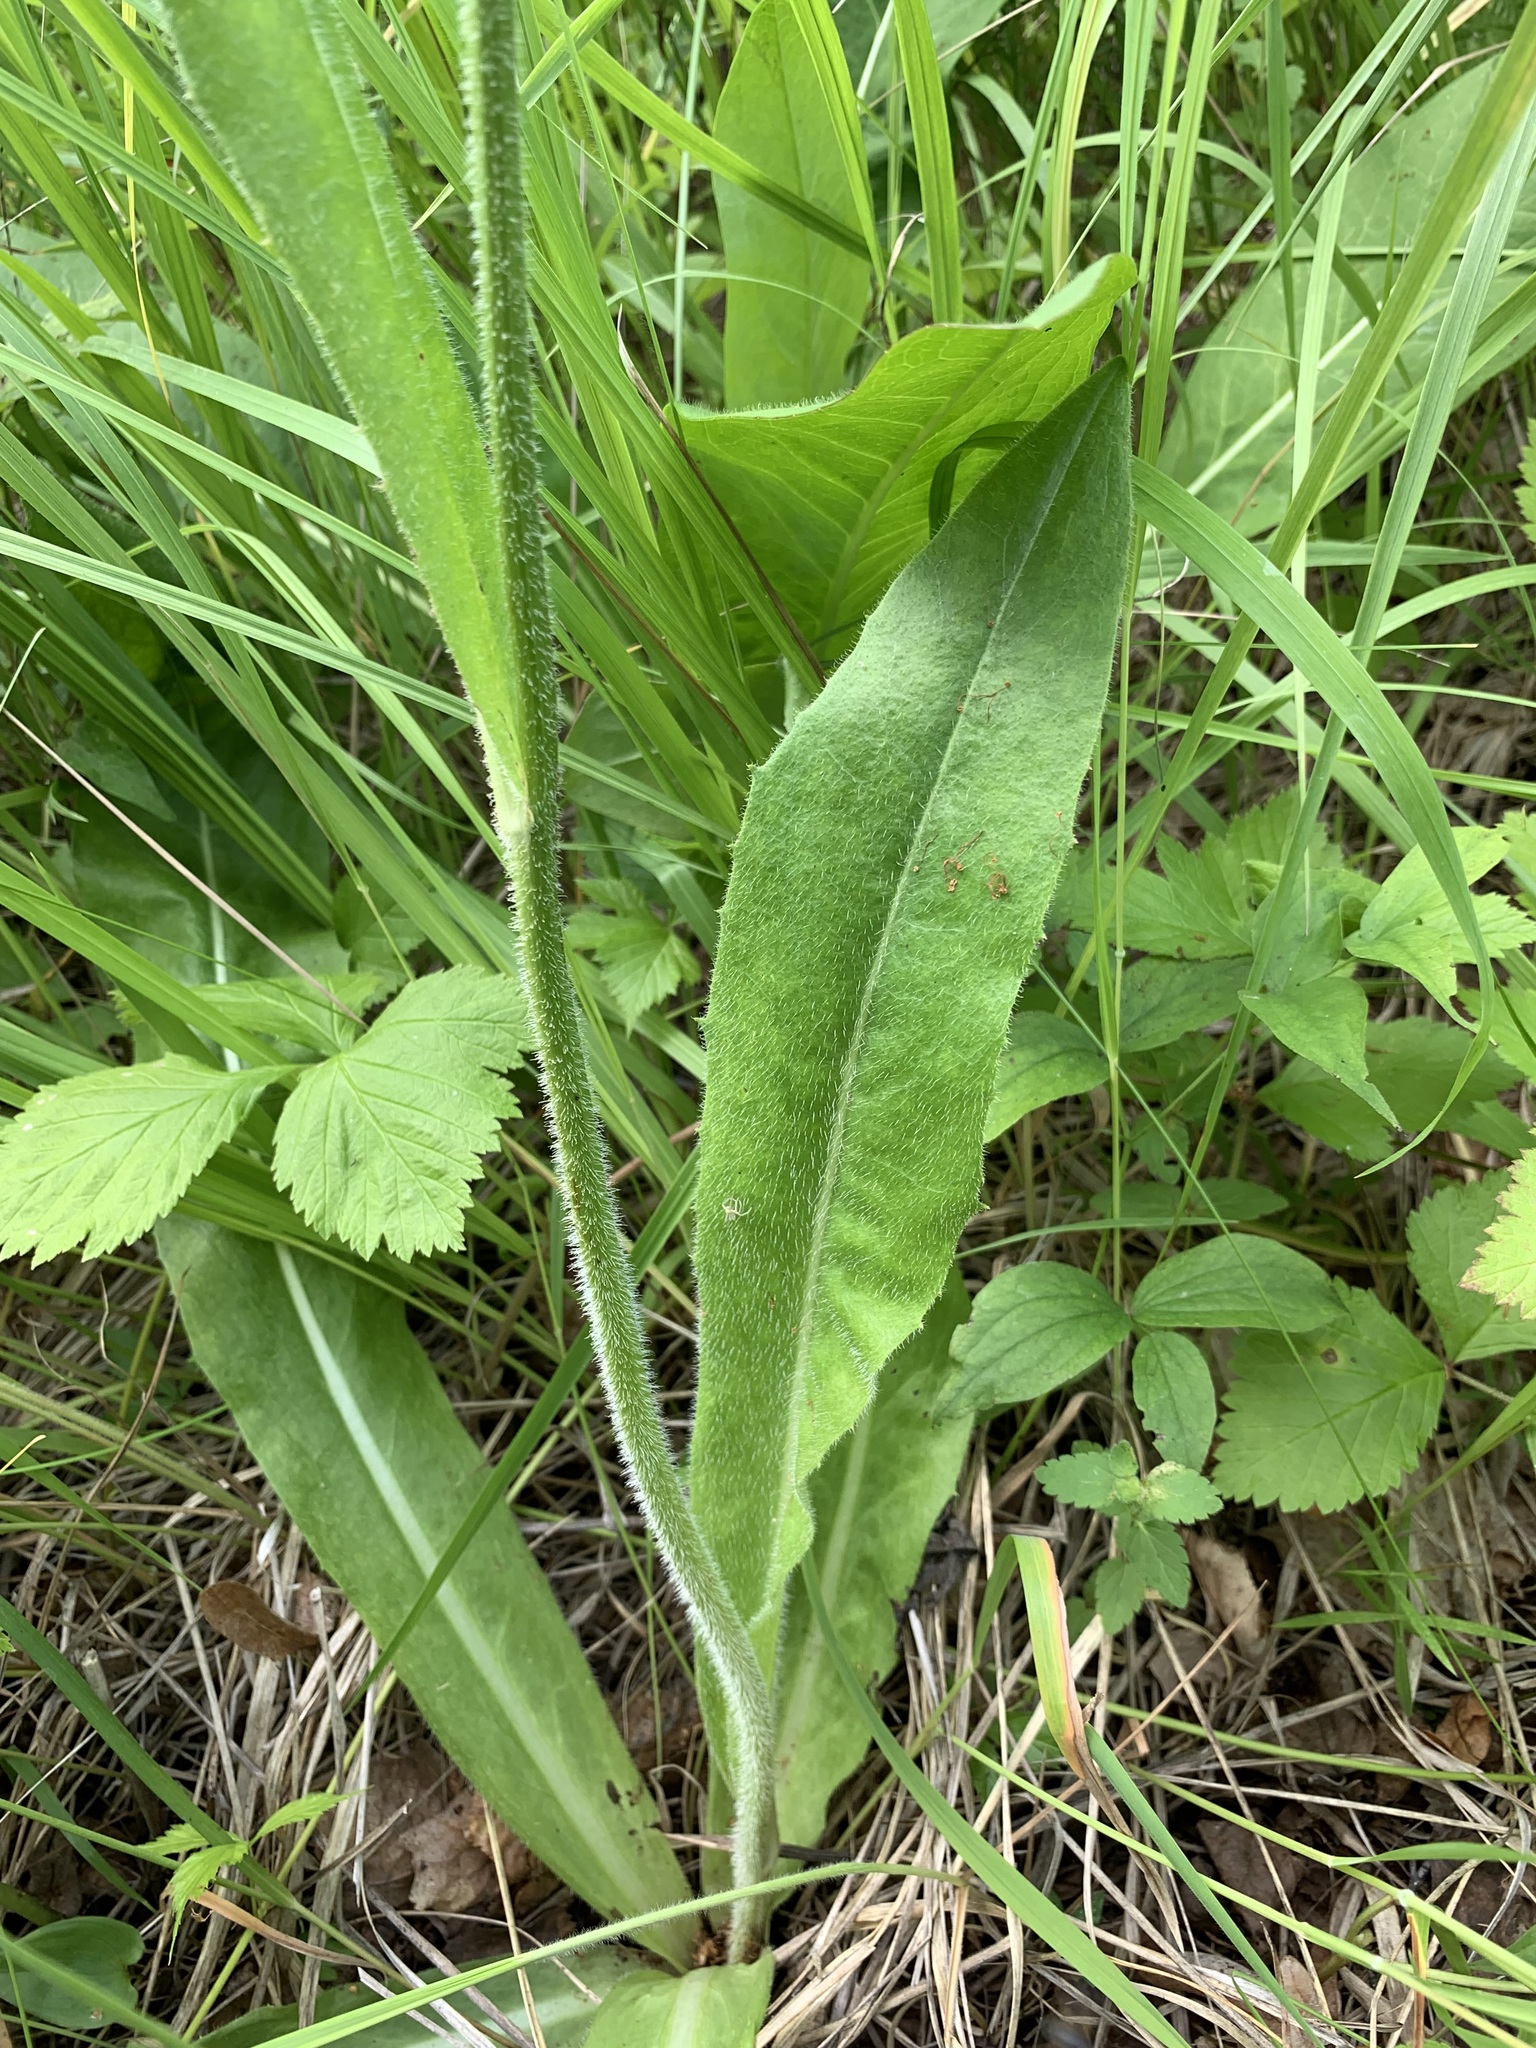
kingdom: Plantae
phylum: Tracheophyta
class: Magnoliopsida
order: Asterales
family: Asteraceae
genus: Trommsdorffia
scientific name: Trommsdorffia maculata
